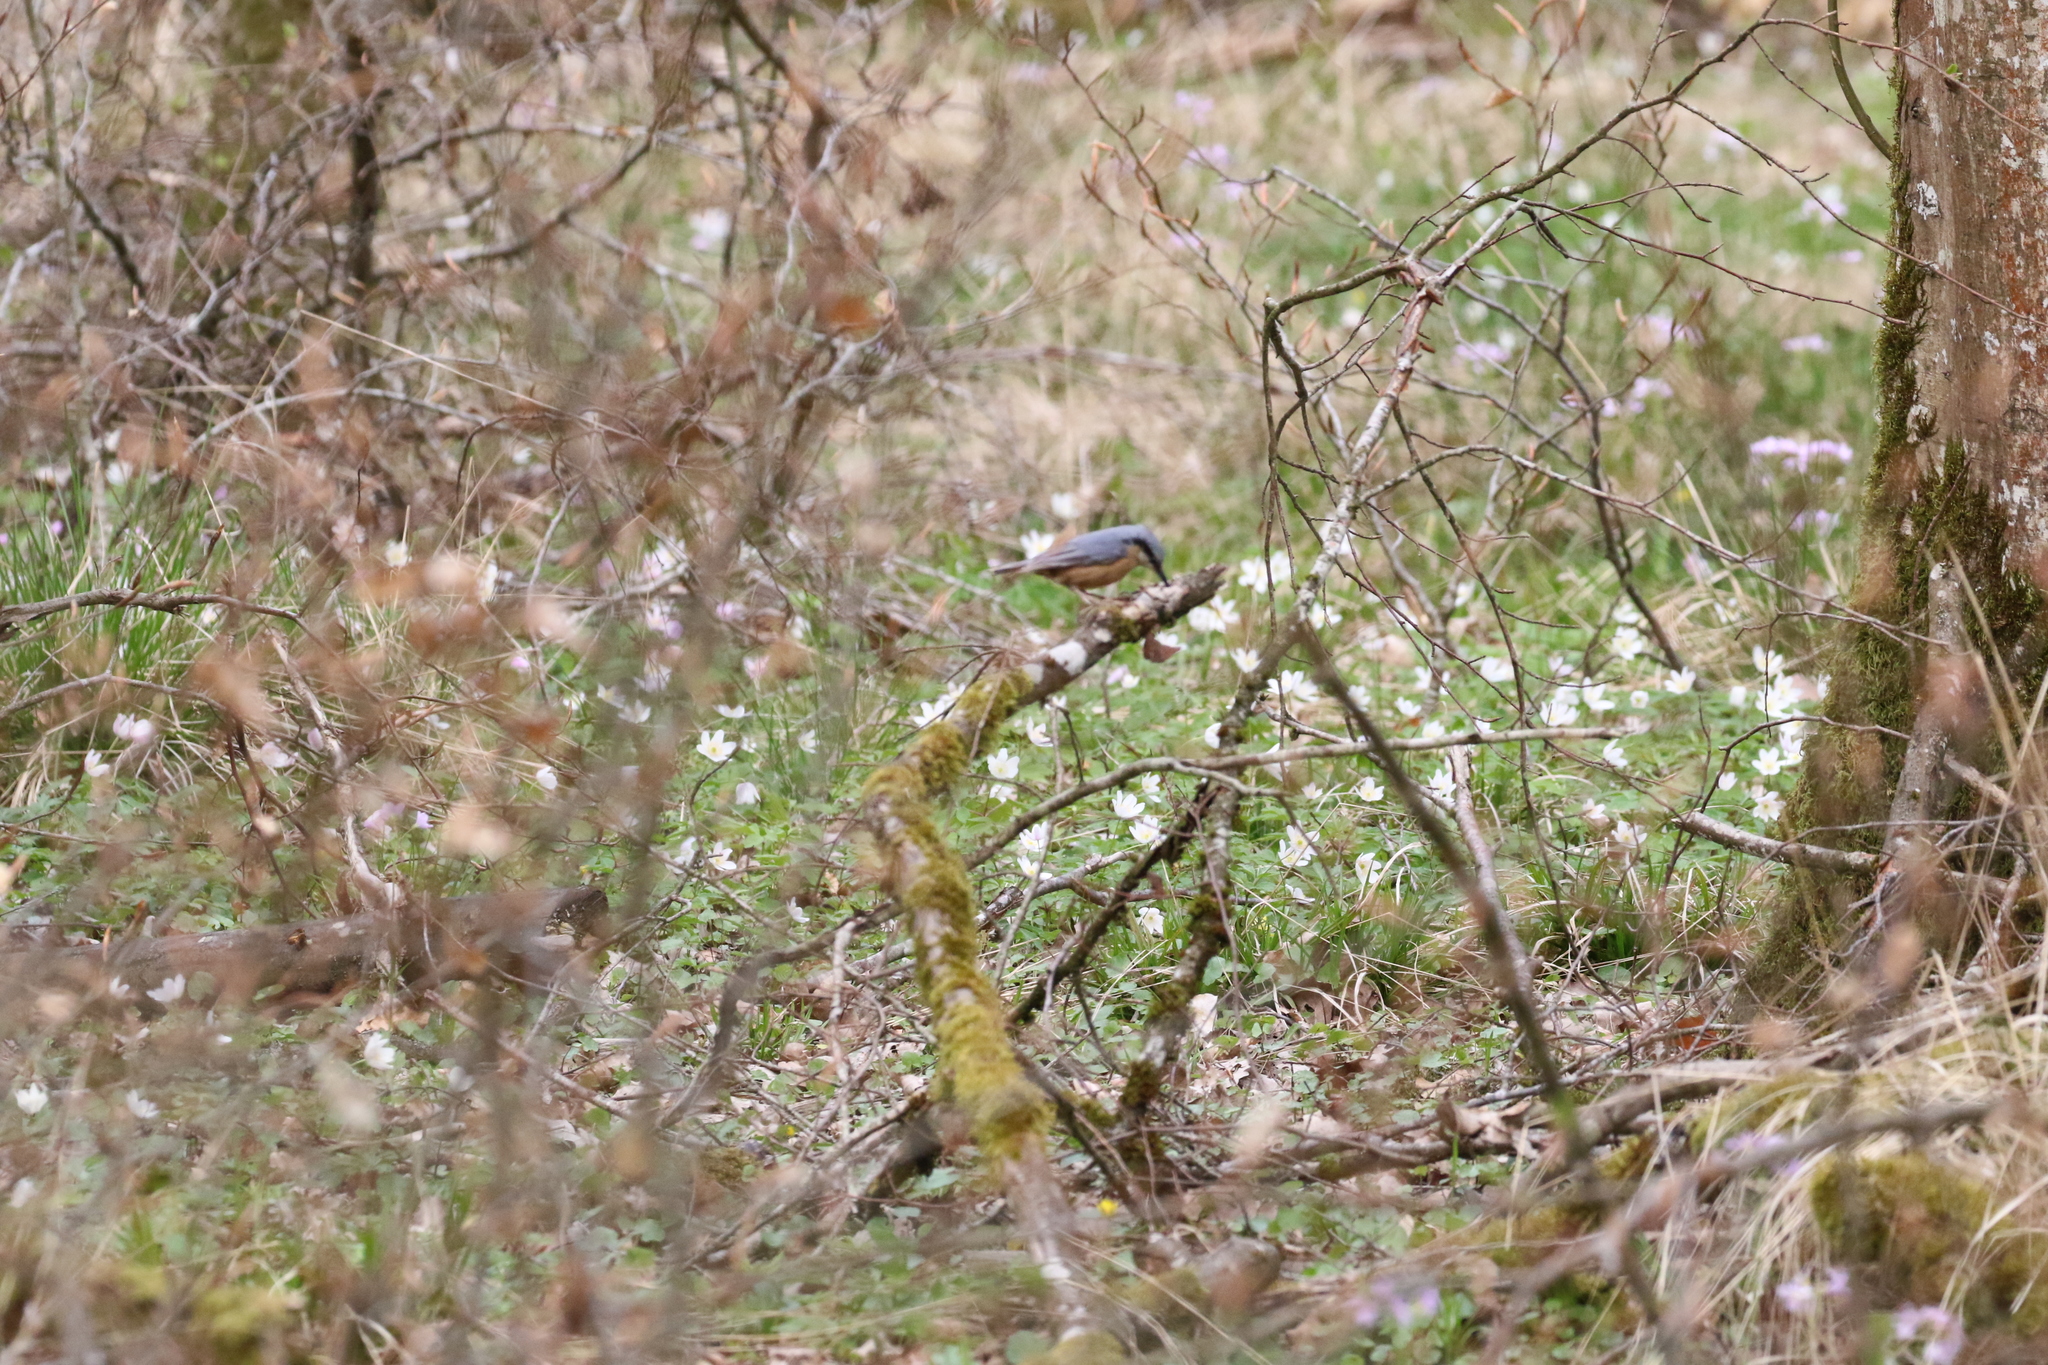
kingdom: Animalia
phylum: Chordata
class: Aves
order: Passeriformes
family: Sittidae
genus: Sitta
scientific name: Sitta europaea
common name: Eurasian nuthatch
